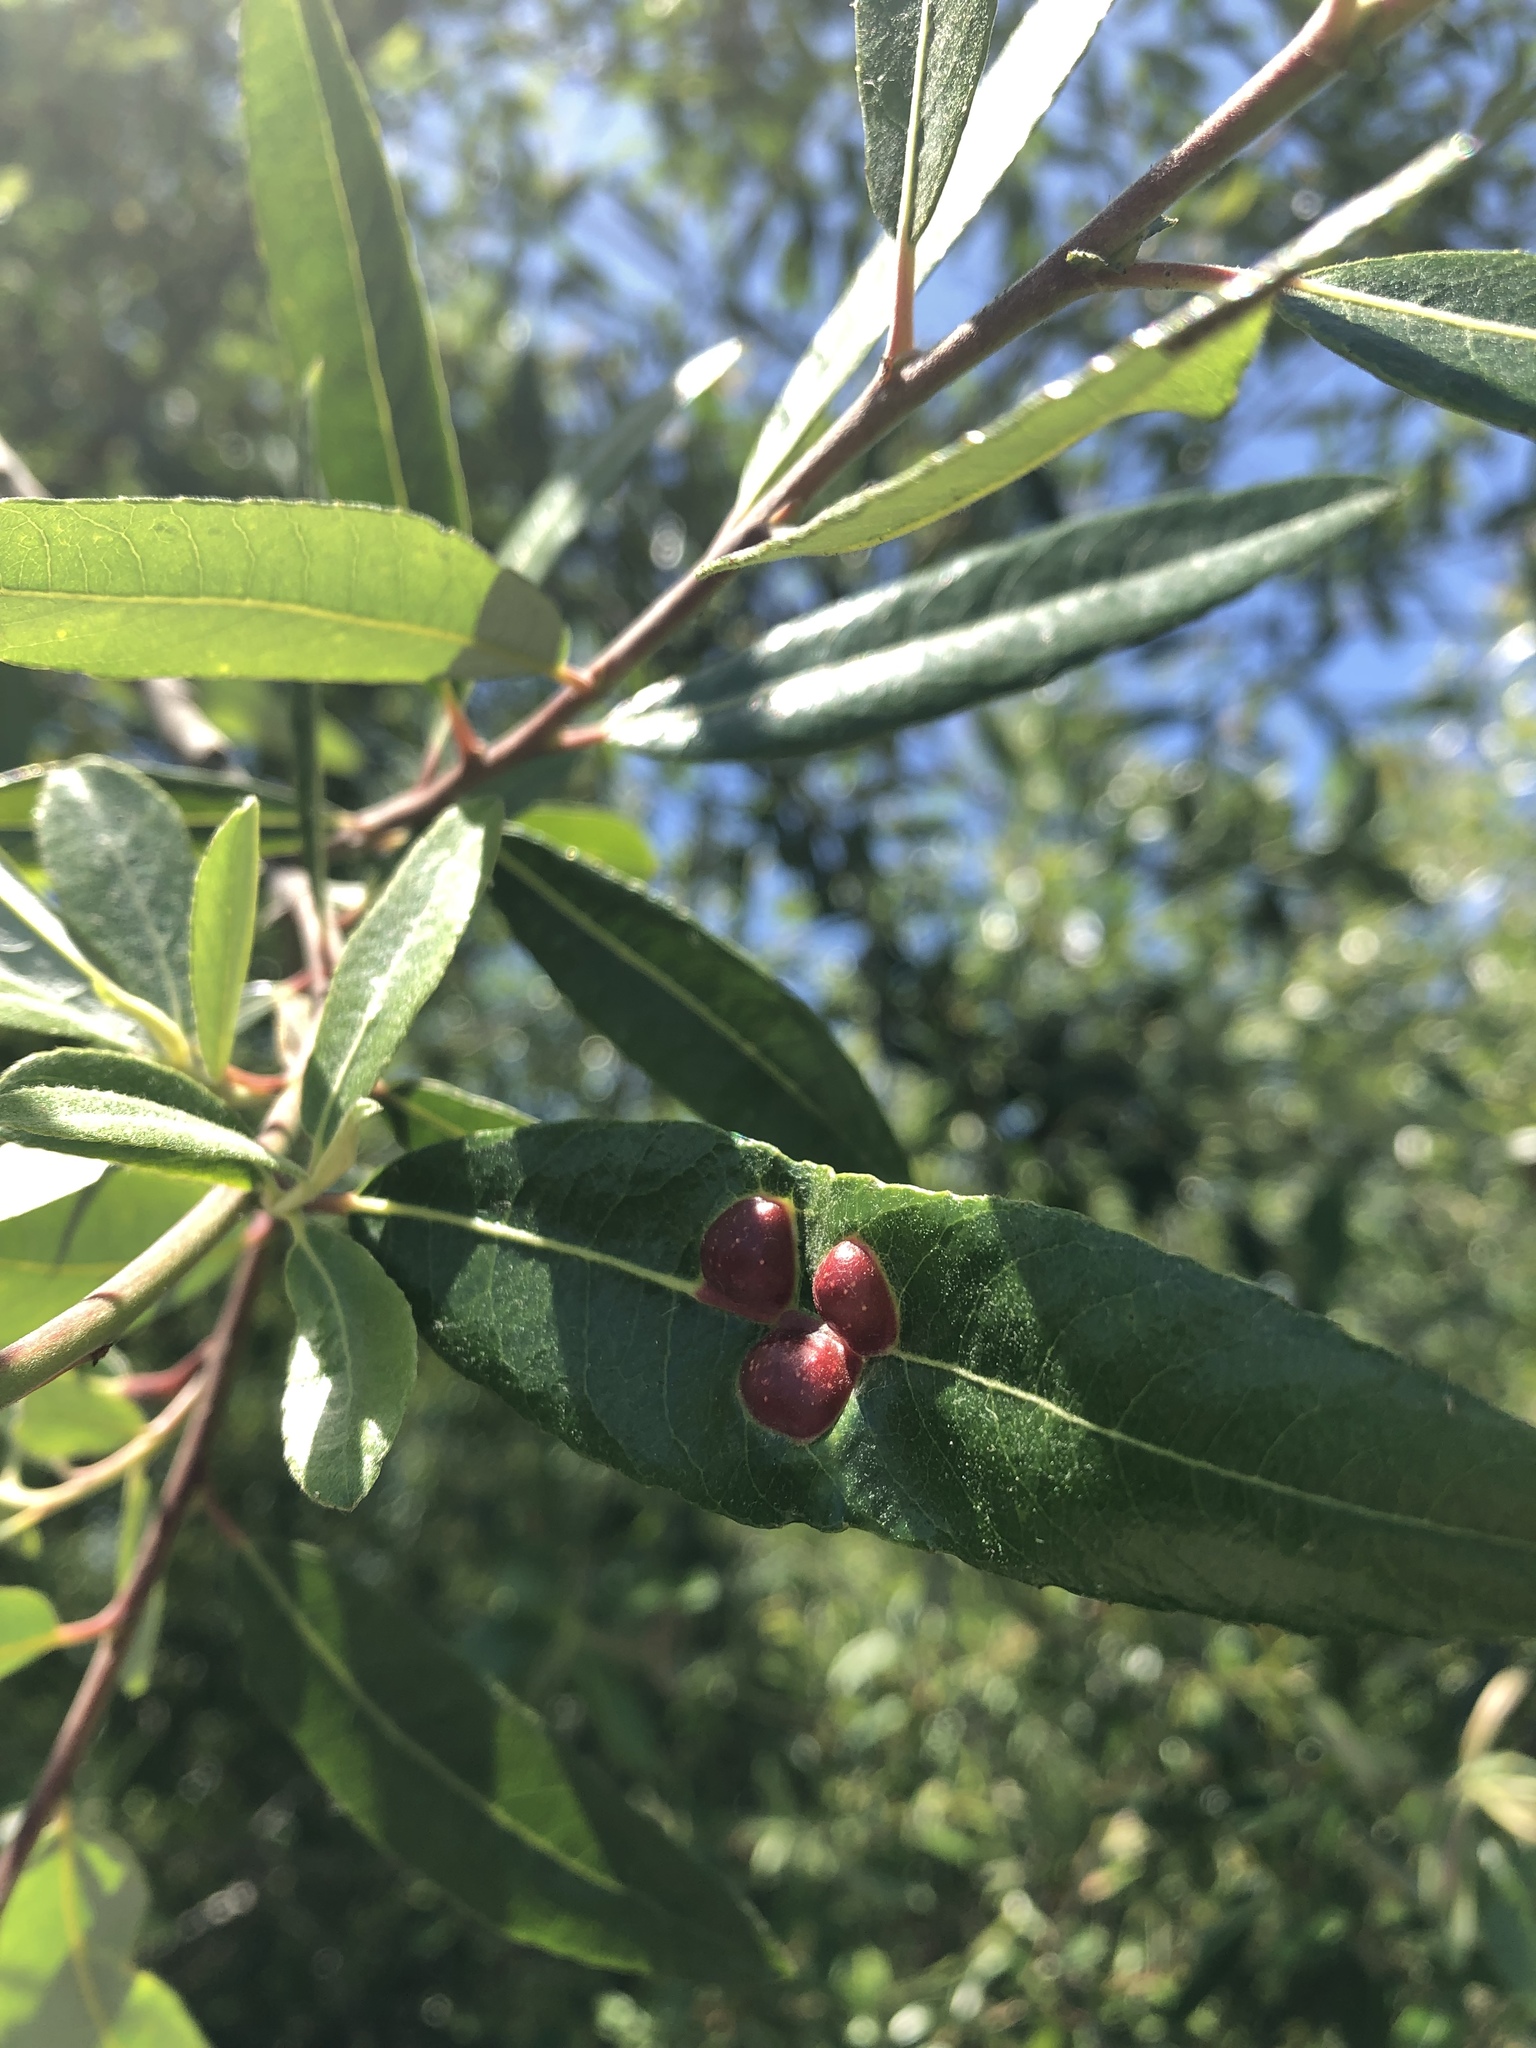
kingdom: Animalia
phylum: Arthropoda
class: Insecta
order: Hymenoptera
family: Tenthredinidae
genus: Euura
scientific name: Euura
